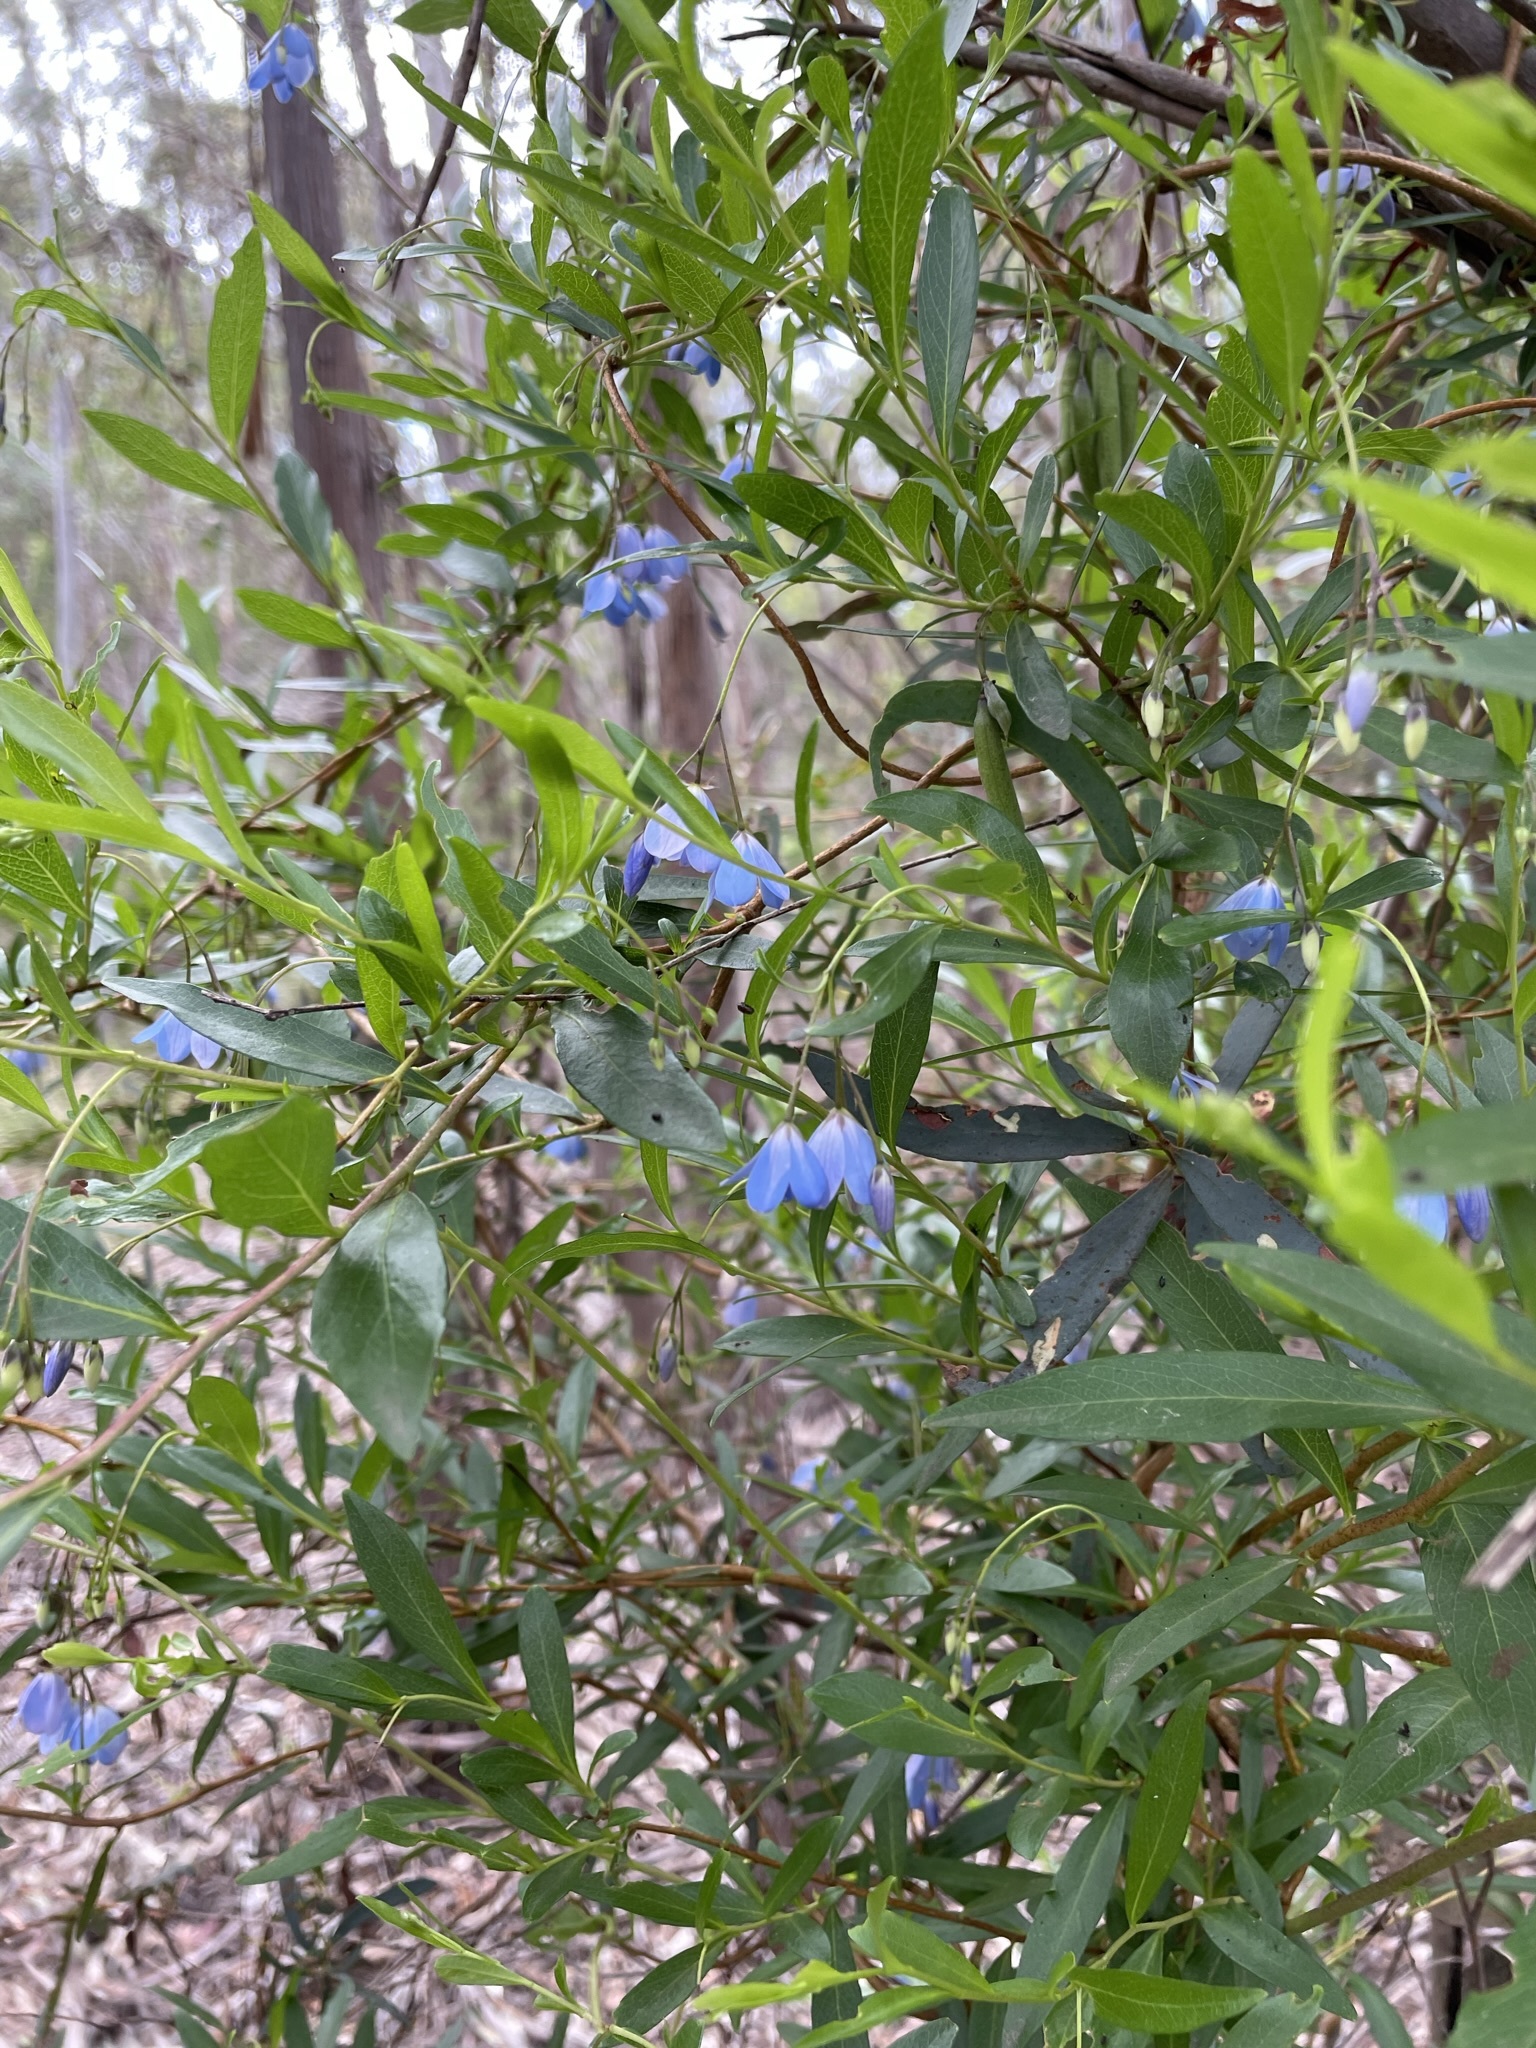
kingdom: Plantae
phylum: Tracheophyta
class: Magnoliopsida
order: Apiales
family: Pittosporaceae
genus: Billardiera
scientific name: Billardiera heterophylla
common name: Bluebell creeper
